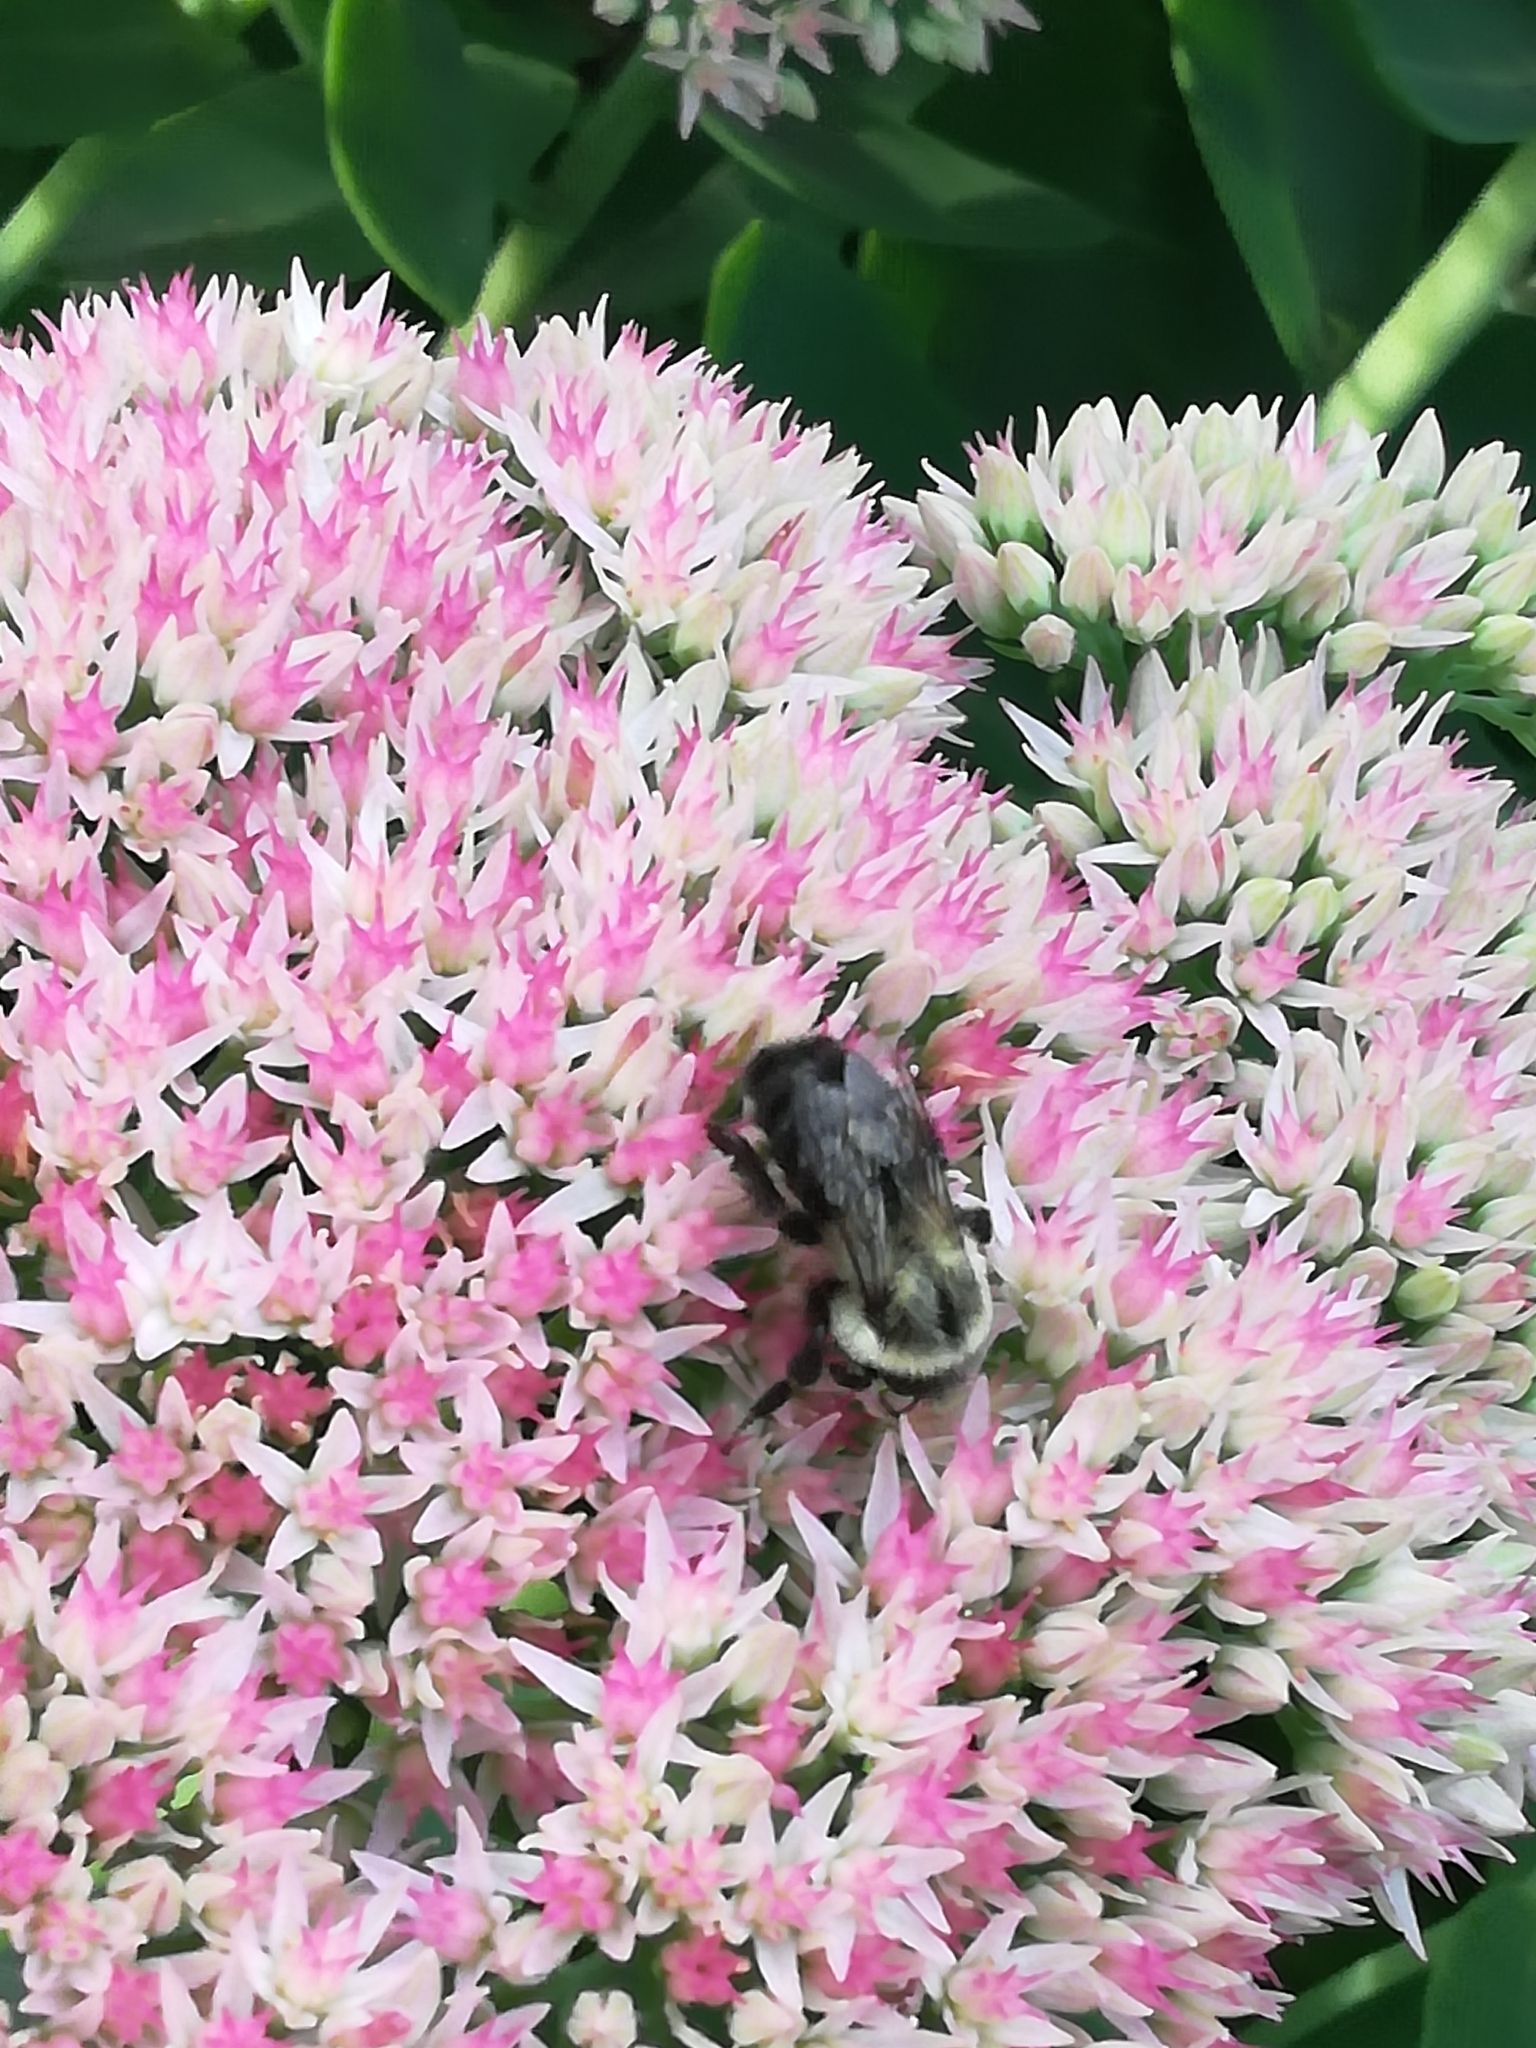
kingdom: Animalia
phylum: Arthropoda
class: Insecta
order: Hymenoptera
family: Apidae
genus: Bombus
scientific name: Bombus impatiens
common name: Common eastern bumble bee
